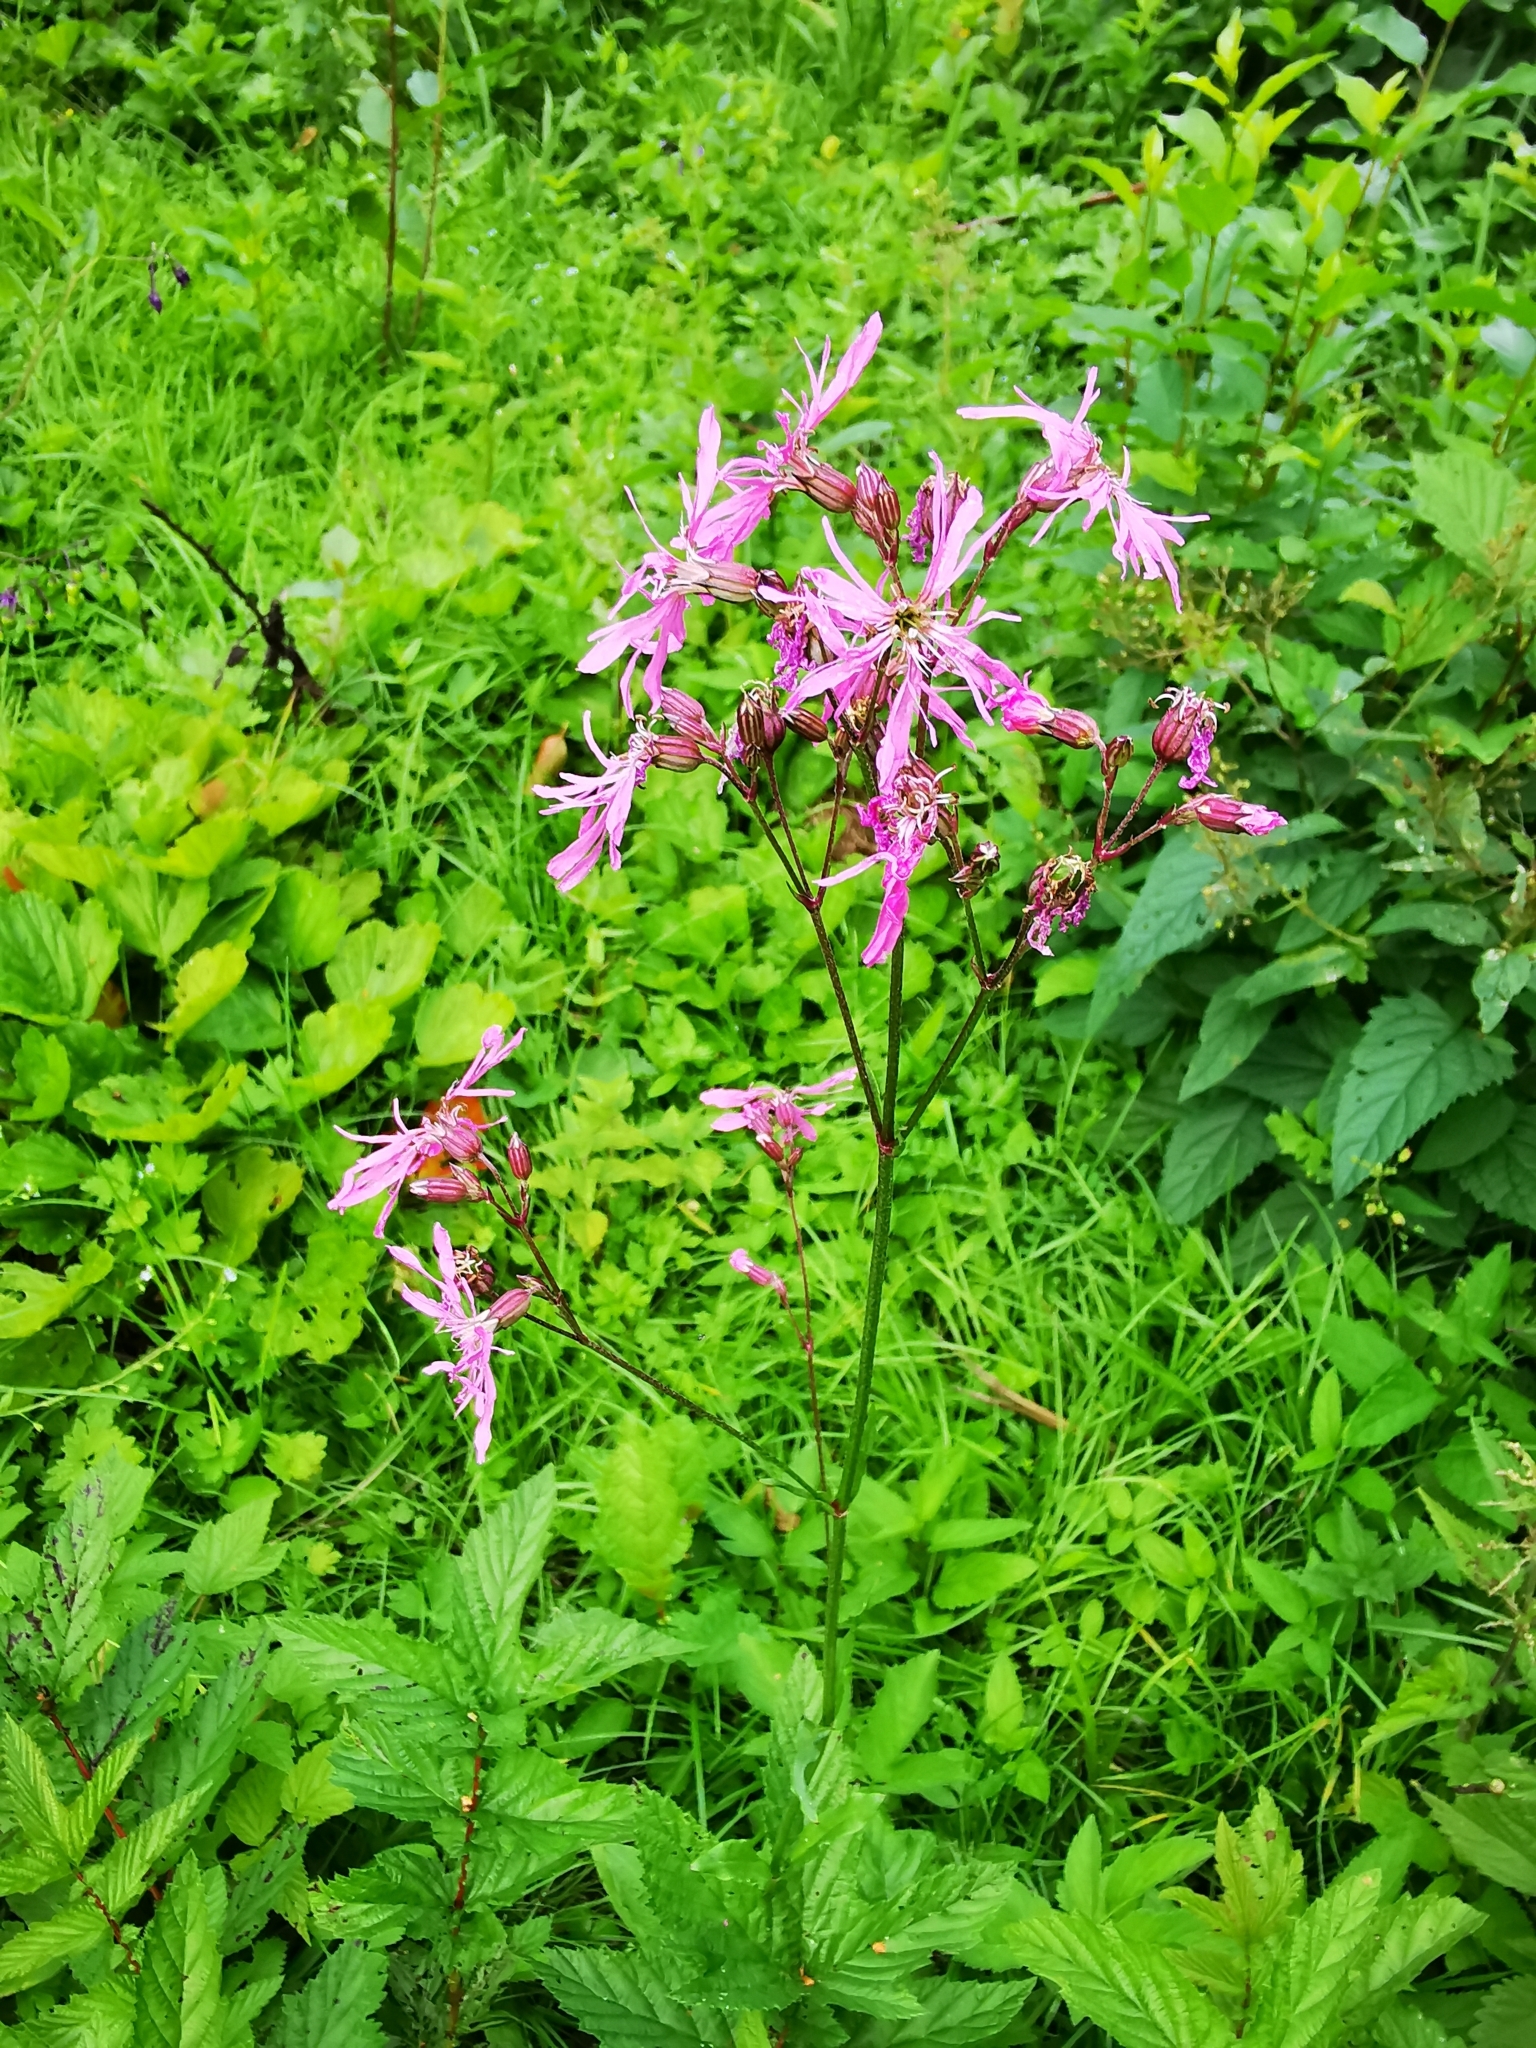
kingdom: Plantae
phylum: Tracheophyta
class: Magnoliopsida
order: Caryophyllales
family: Caryophyllaceae
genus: Silene
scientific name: Silene flos-cuculi
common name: Ragged-robin
